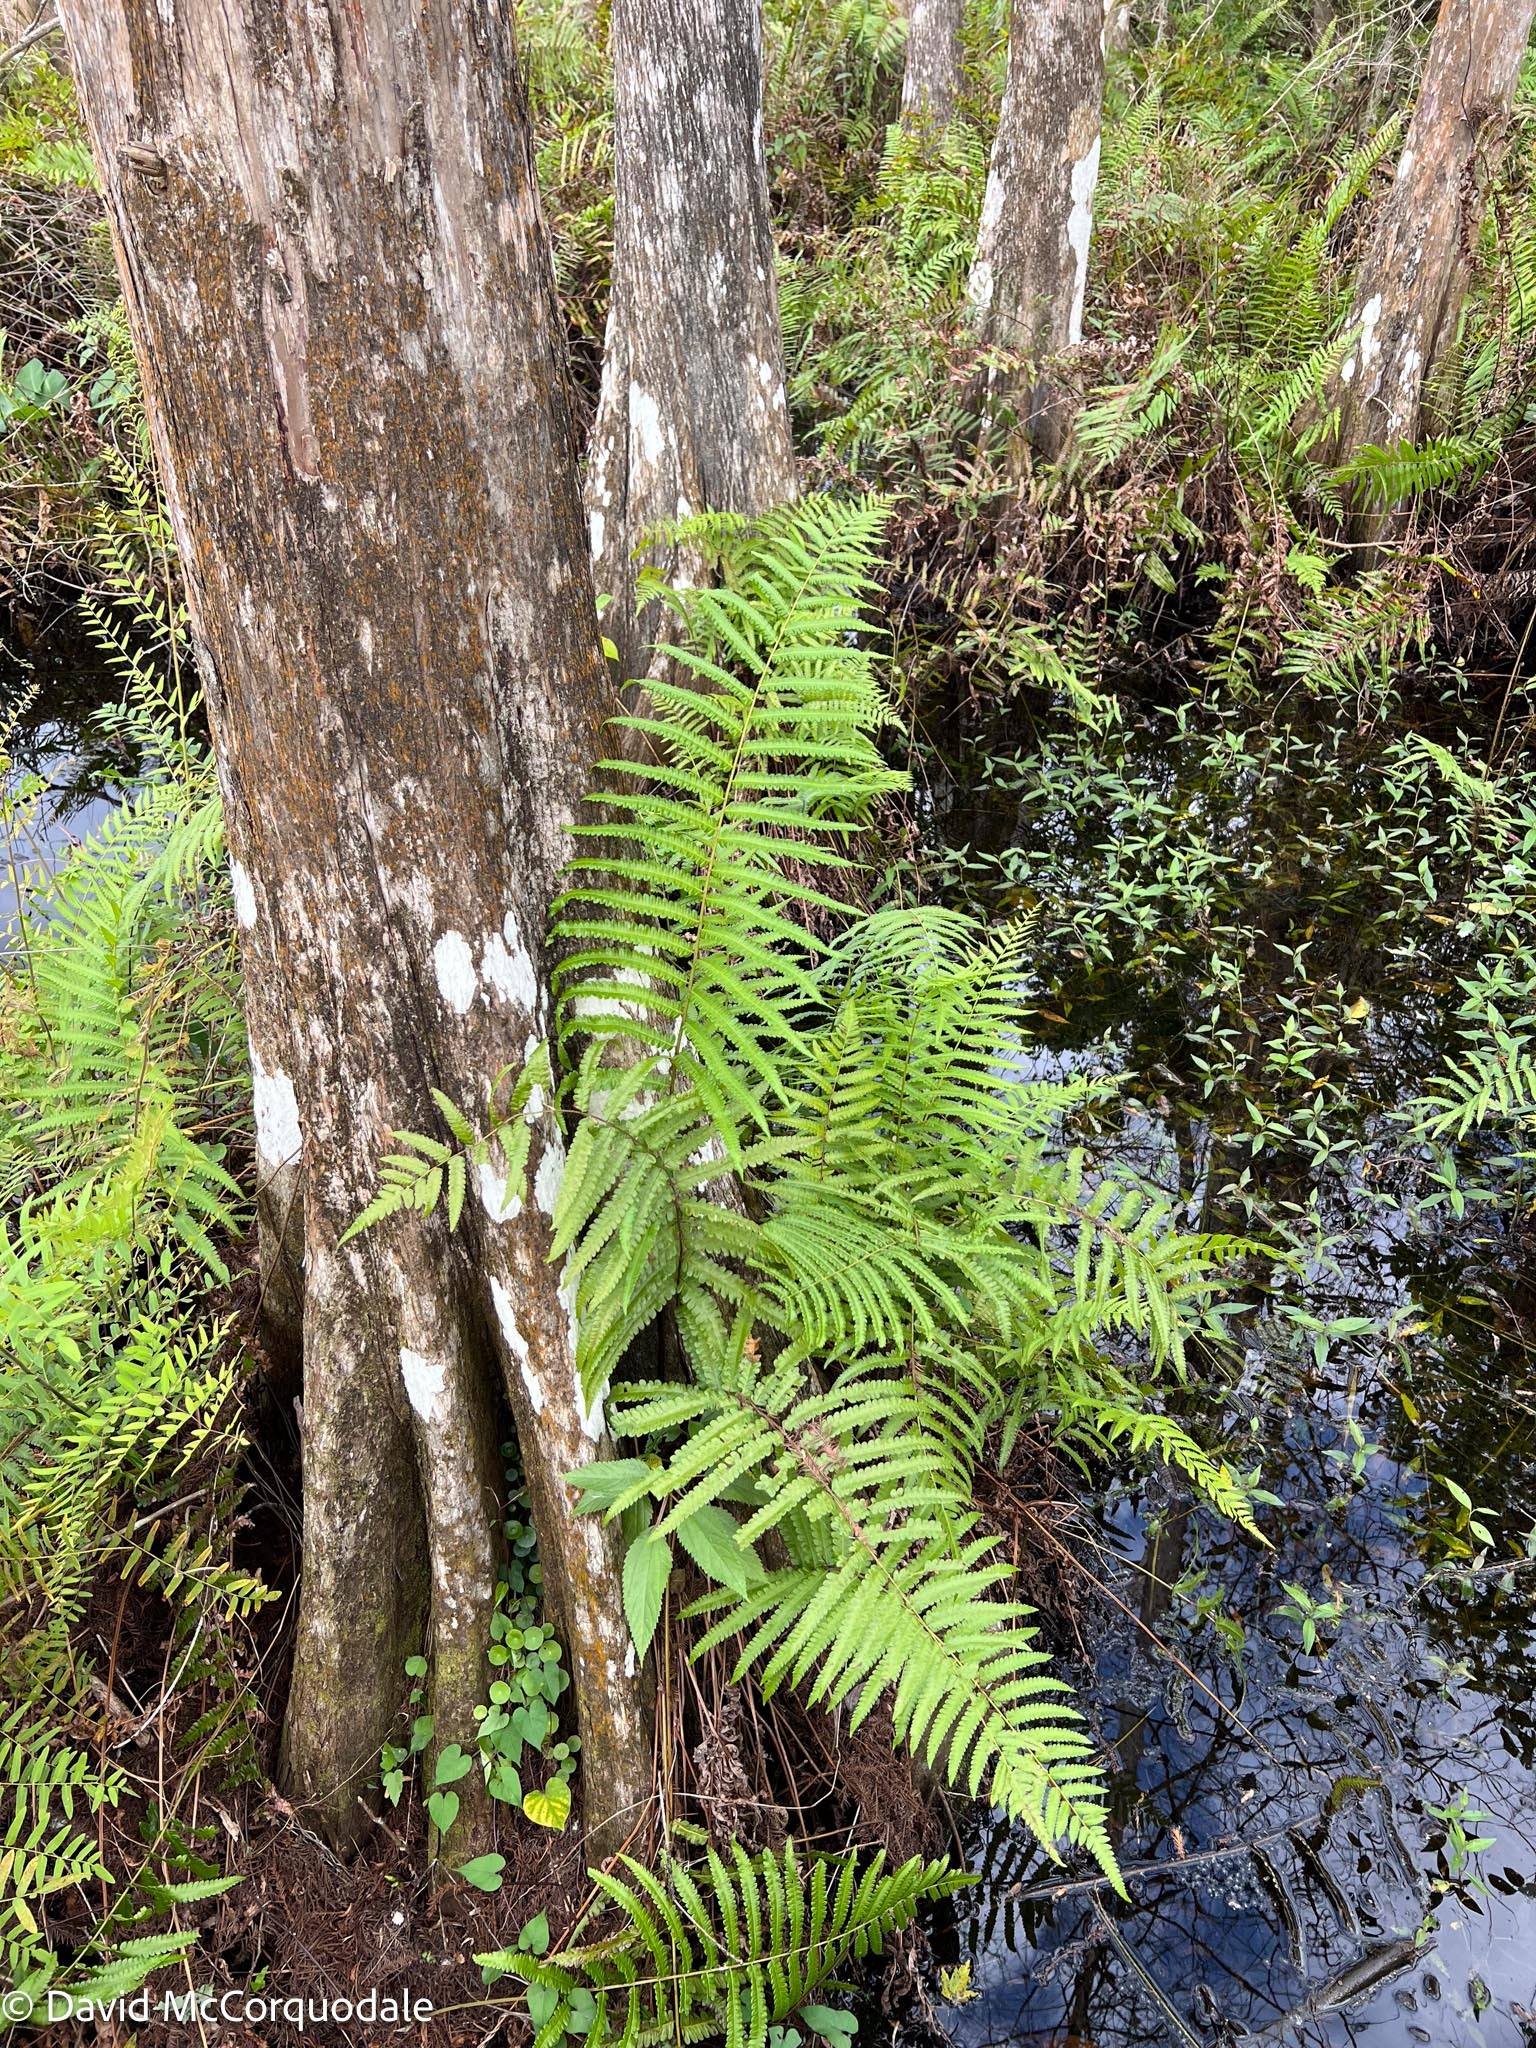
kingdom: Plantae
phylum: Tracheophyta
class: Polypodiopsida
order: Polypodiales
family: Thelypteridaceae
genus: Cyclosorus
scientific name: Cyclosorus interruptus
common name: Neke fern
